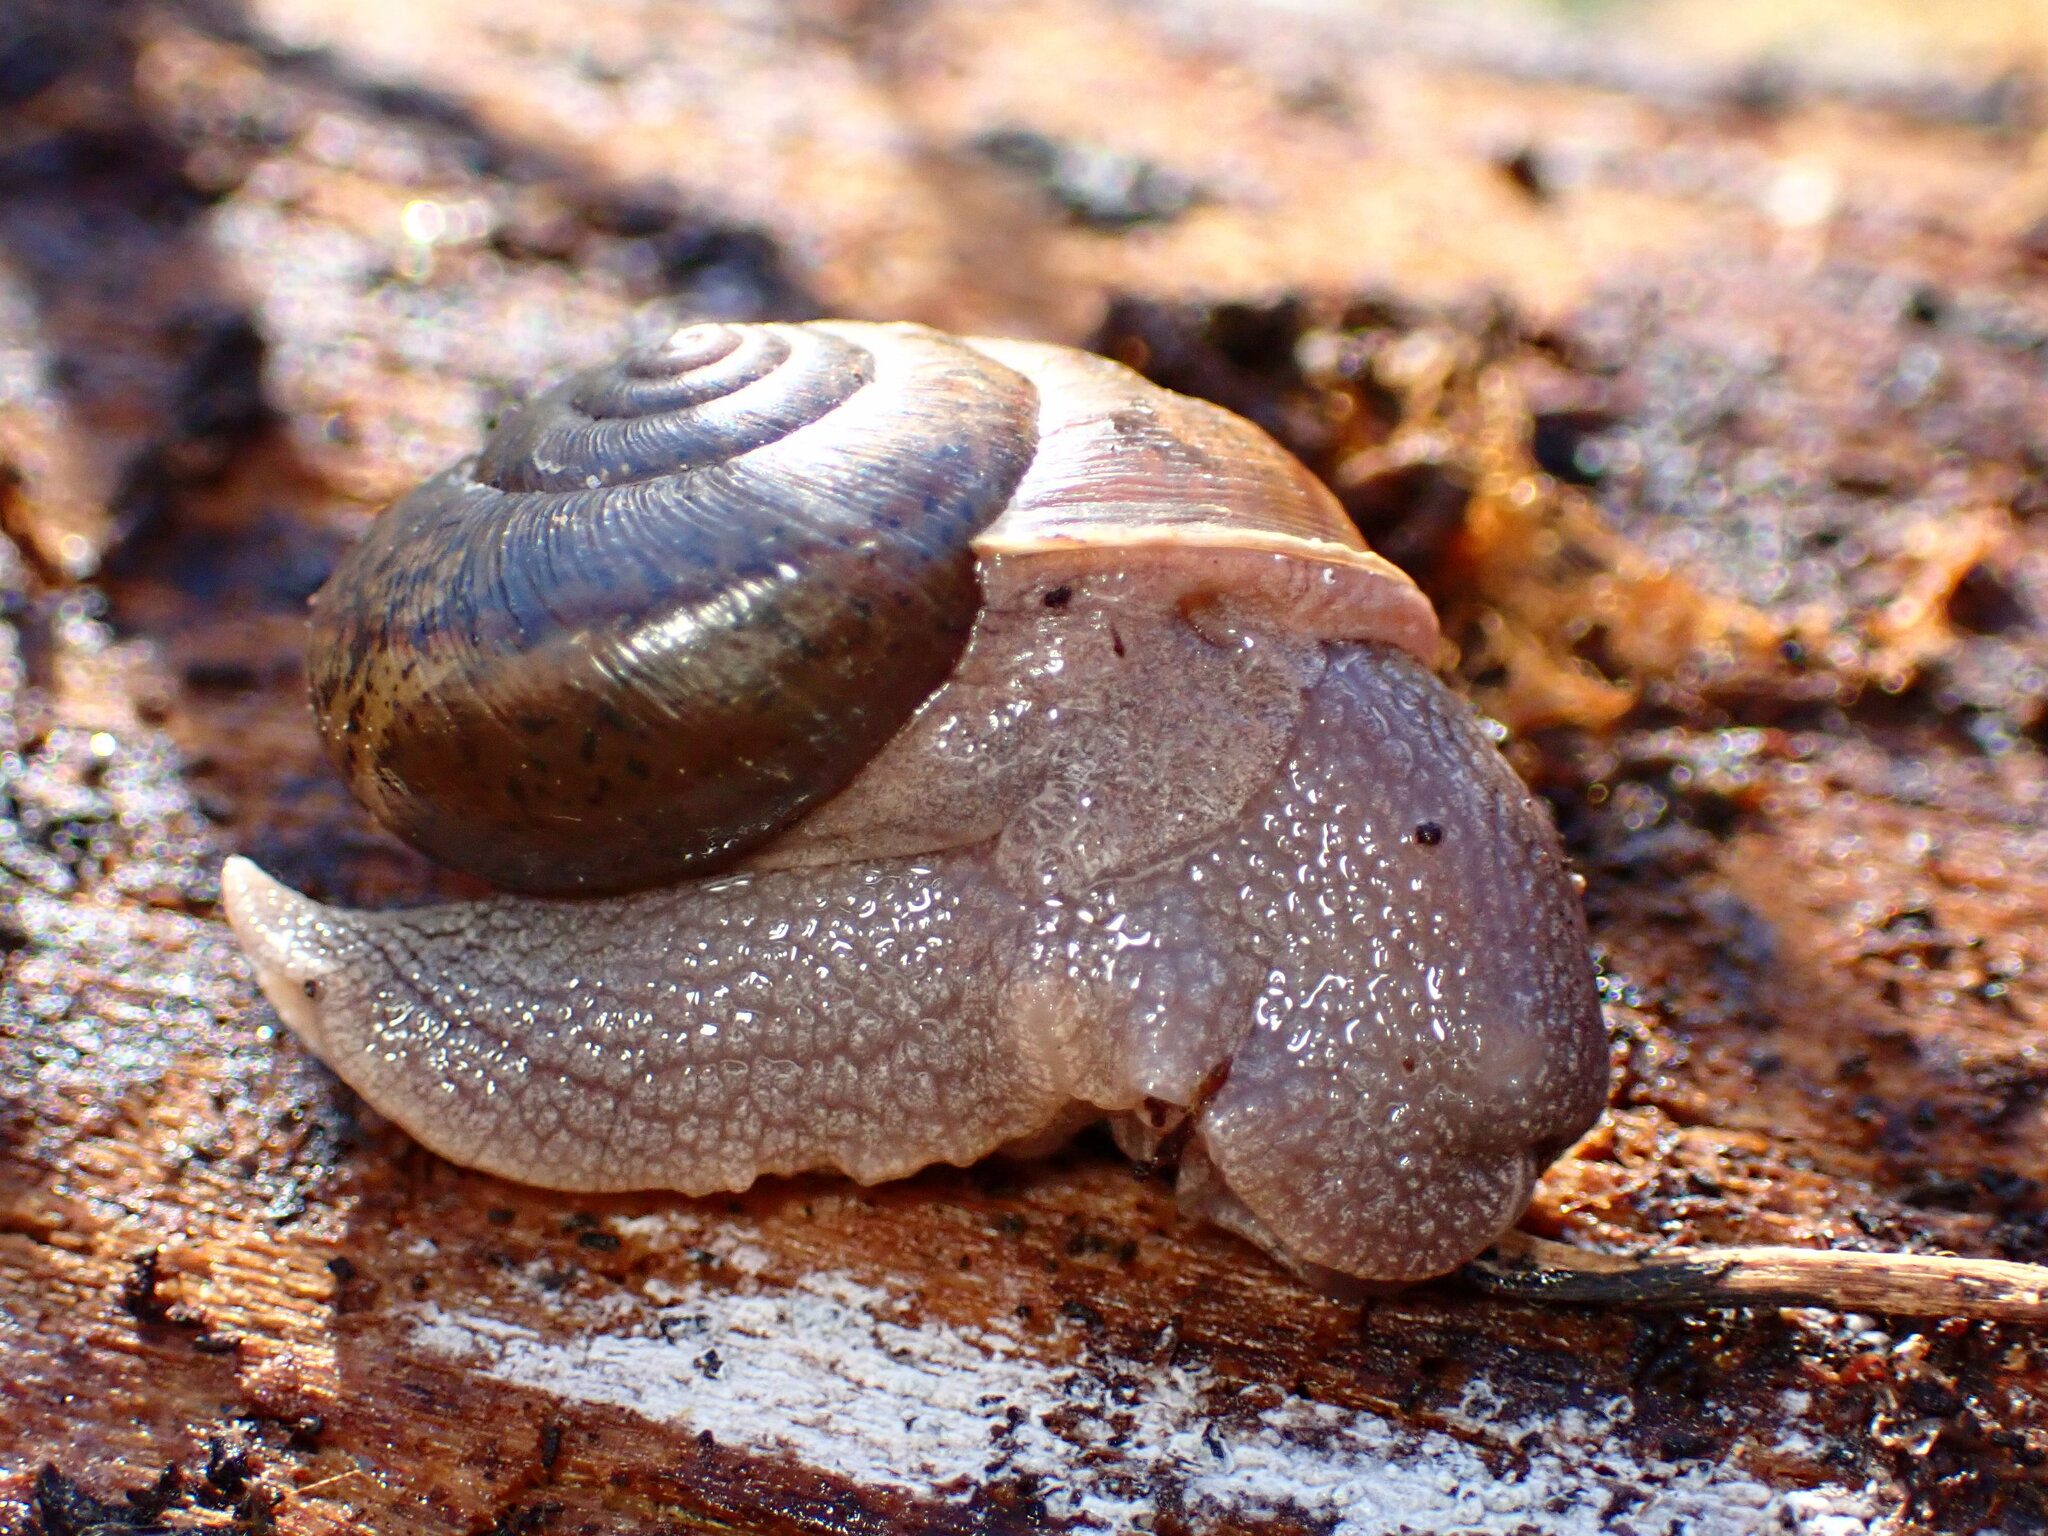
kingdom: Animalia
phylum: Mollusca
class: Gastropoda
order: Stylommatophora
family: Xanthonychidae
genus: Helminthoglypta
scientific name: Helminthoglypta cypreophila
